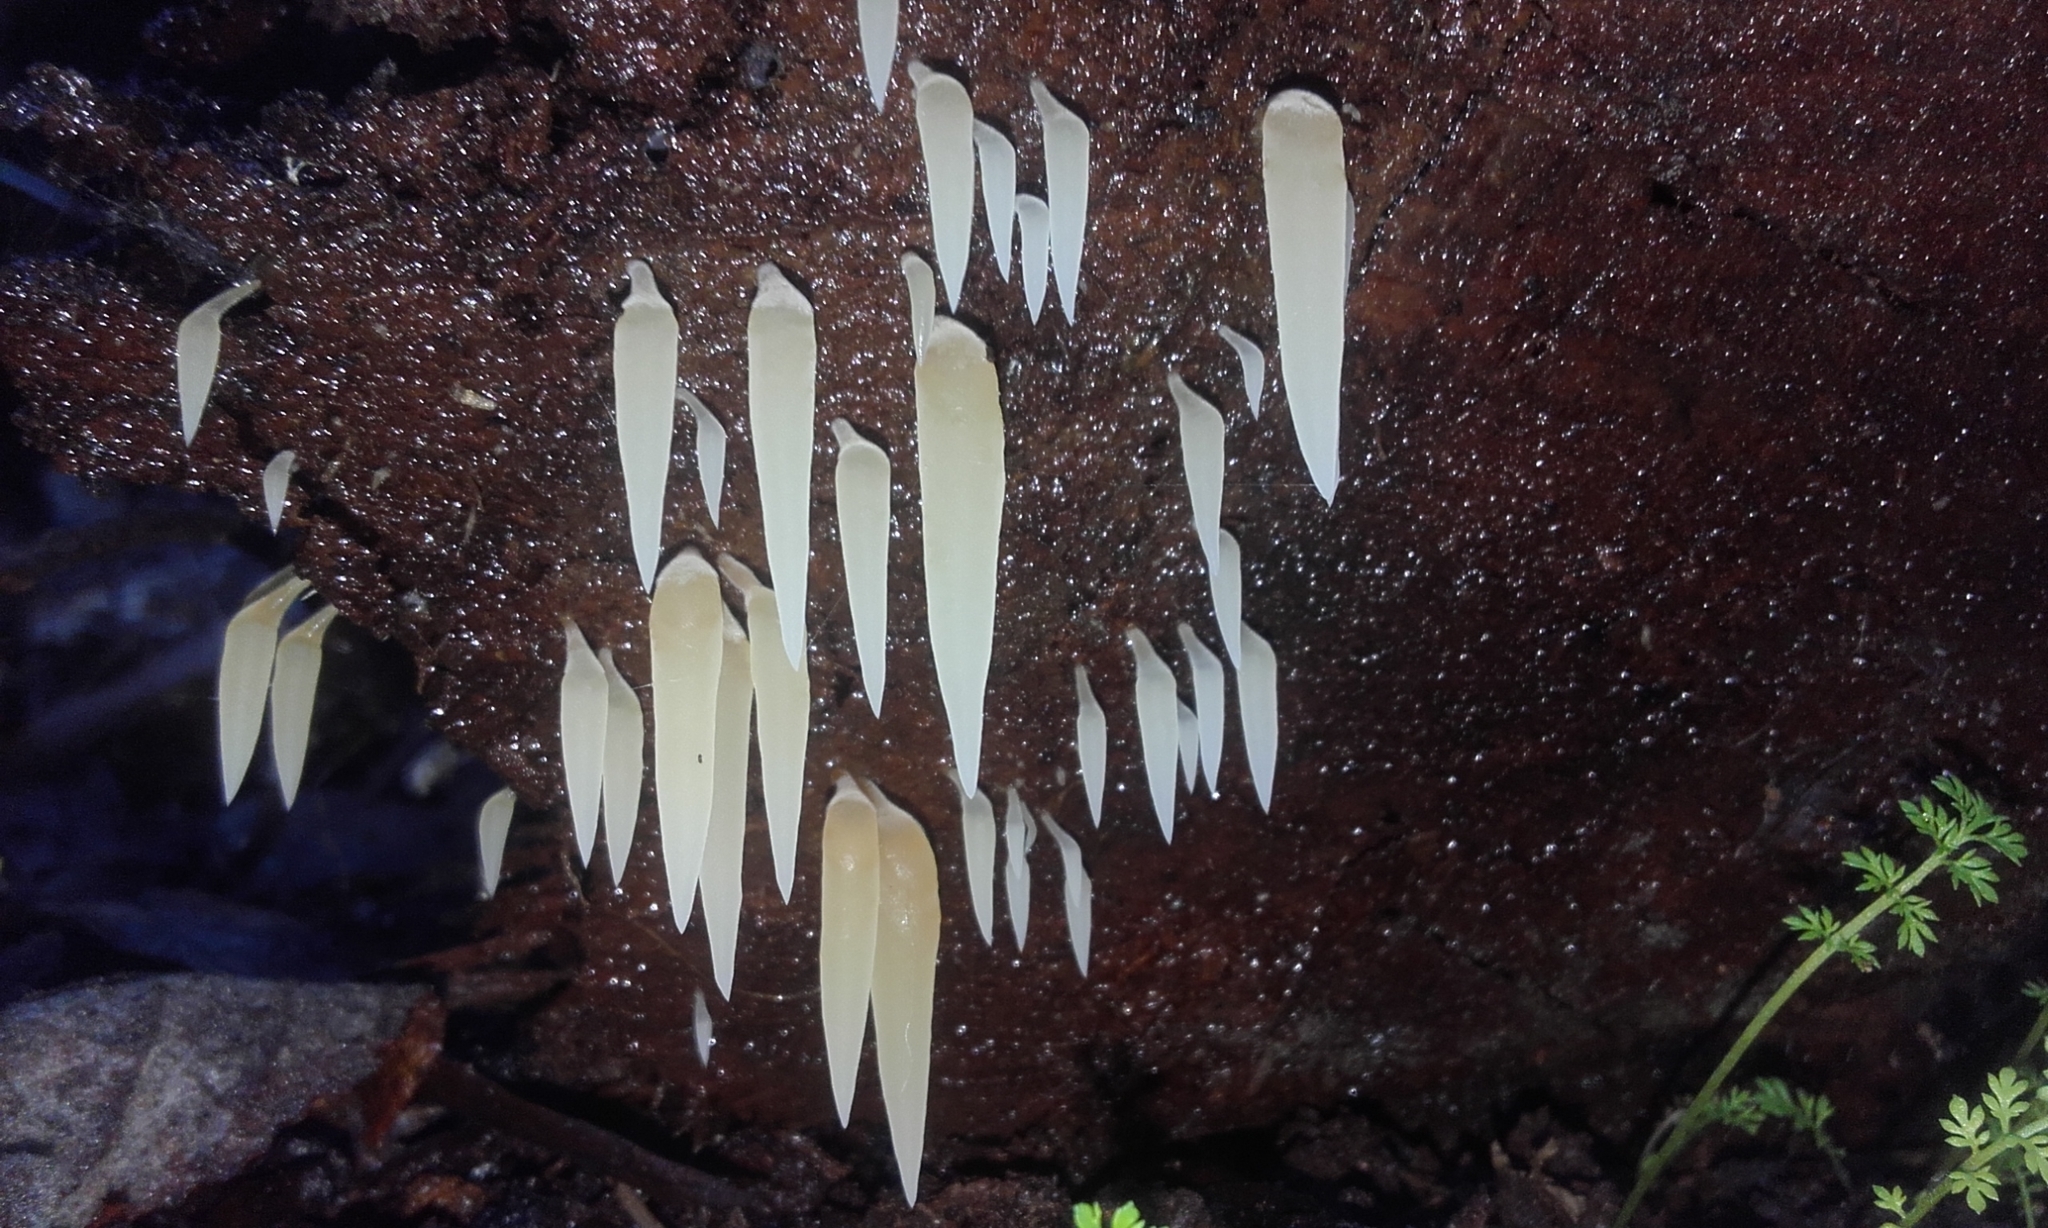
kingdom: Fungi
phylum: Basidiomycota
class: Agaricomycetes
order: Agaricales
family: Clavariaceae
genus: Mucronella
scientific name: Mucronella pendula
